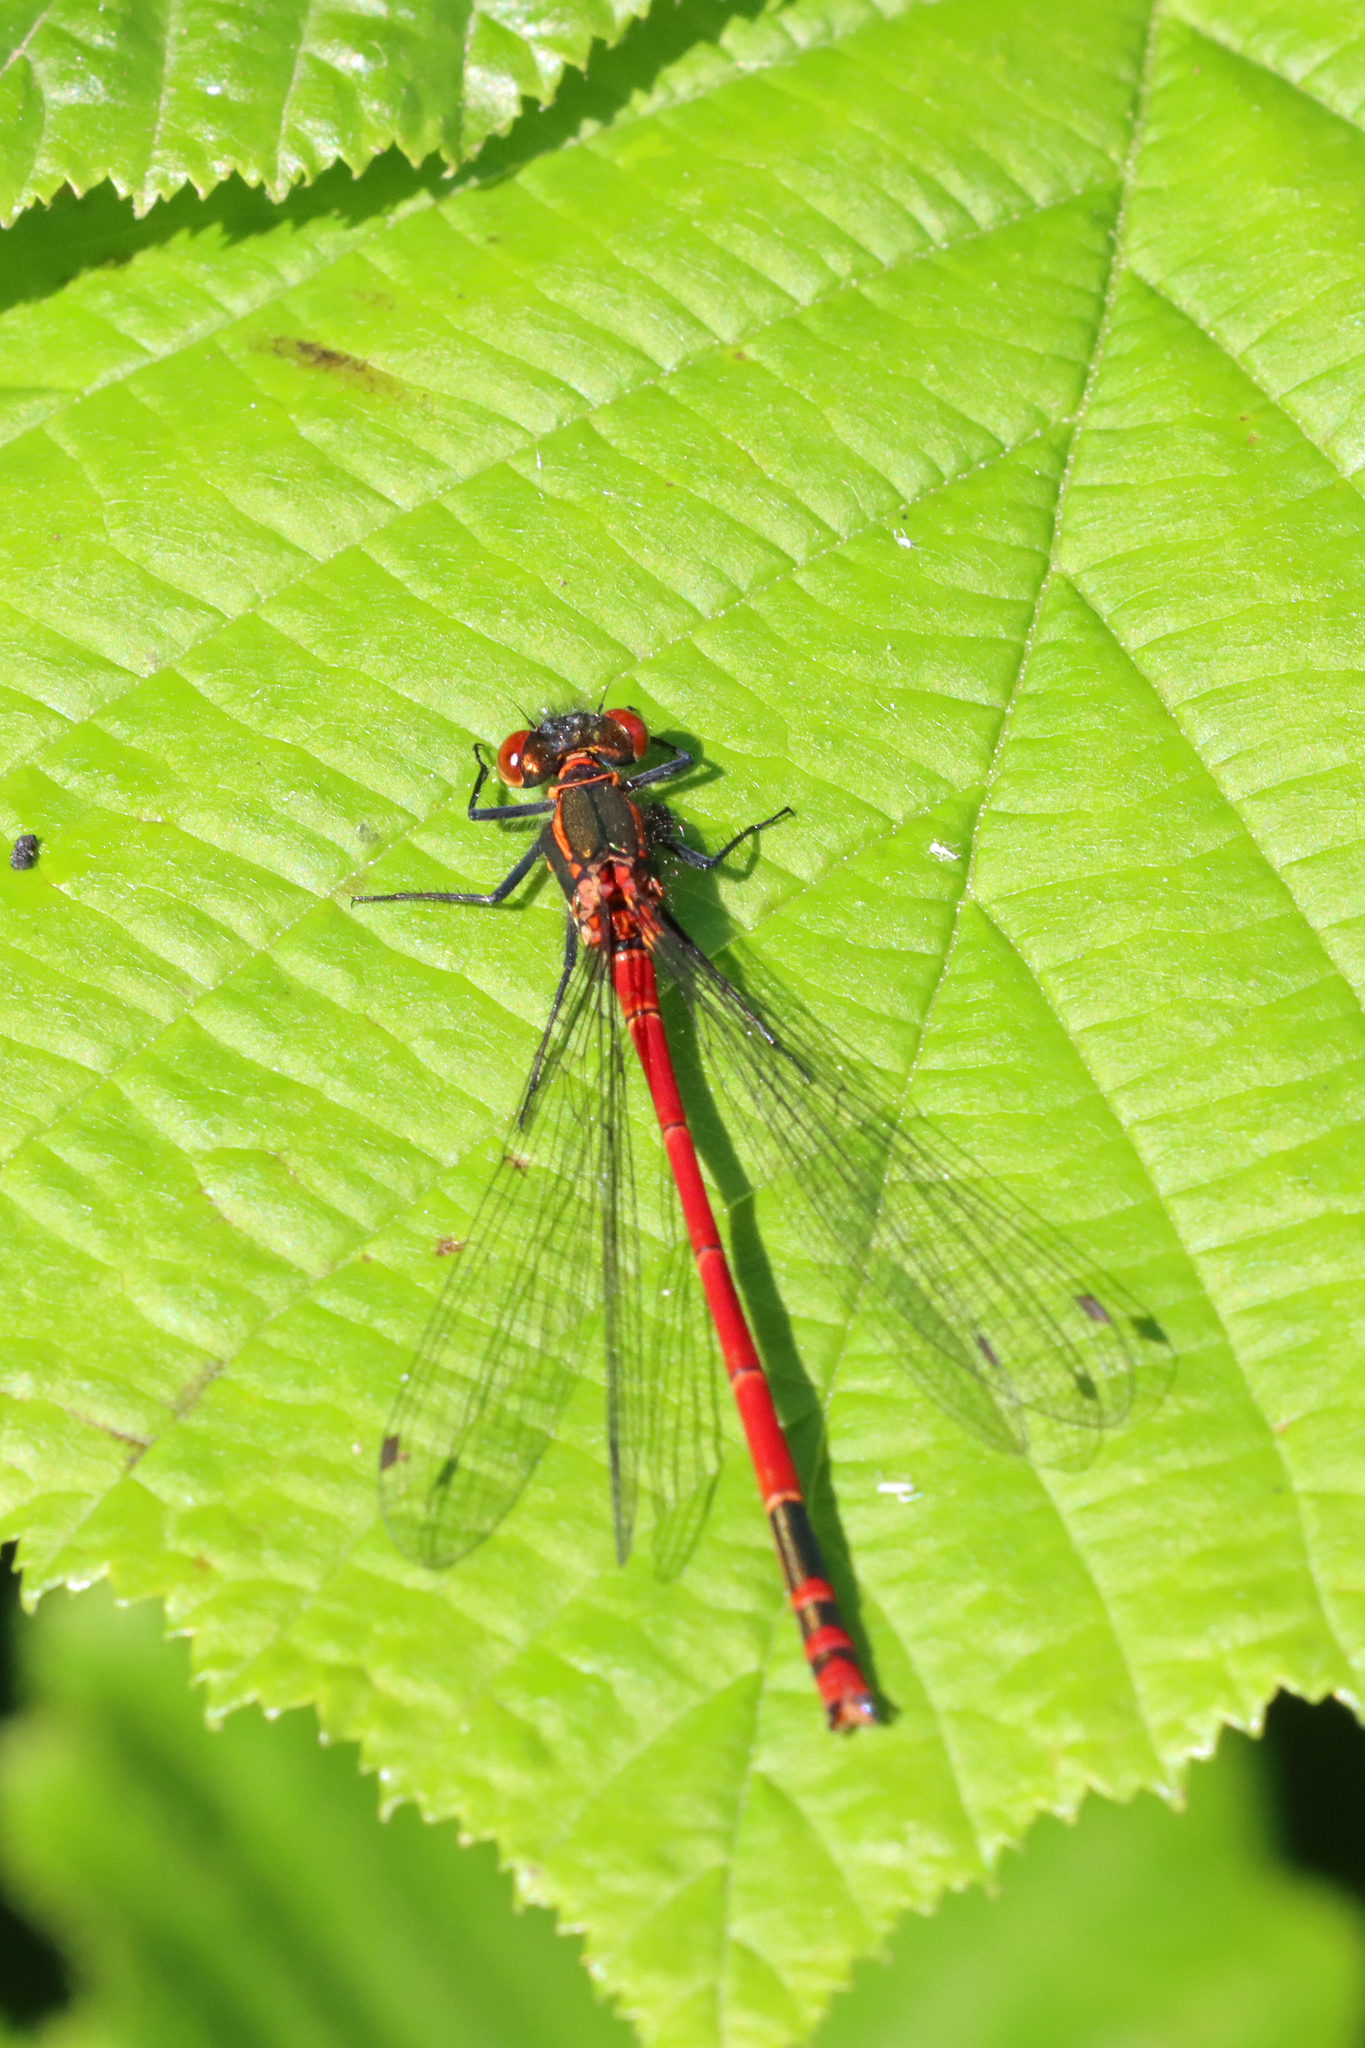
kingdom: Animalia
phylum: Arthropoda
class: Insecta
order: Odonata
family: Coenagrionidae
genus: Pyrrhosoma
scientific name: Pyrrhosoma nymphula
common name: Large red damsel
